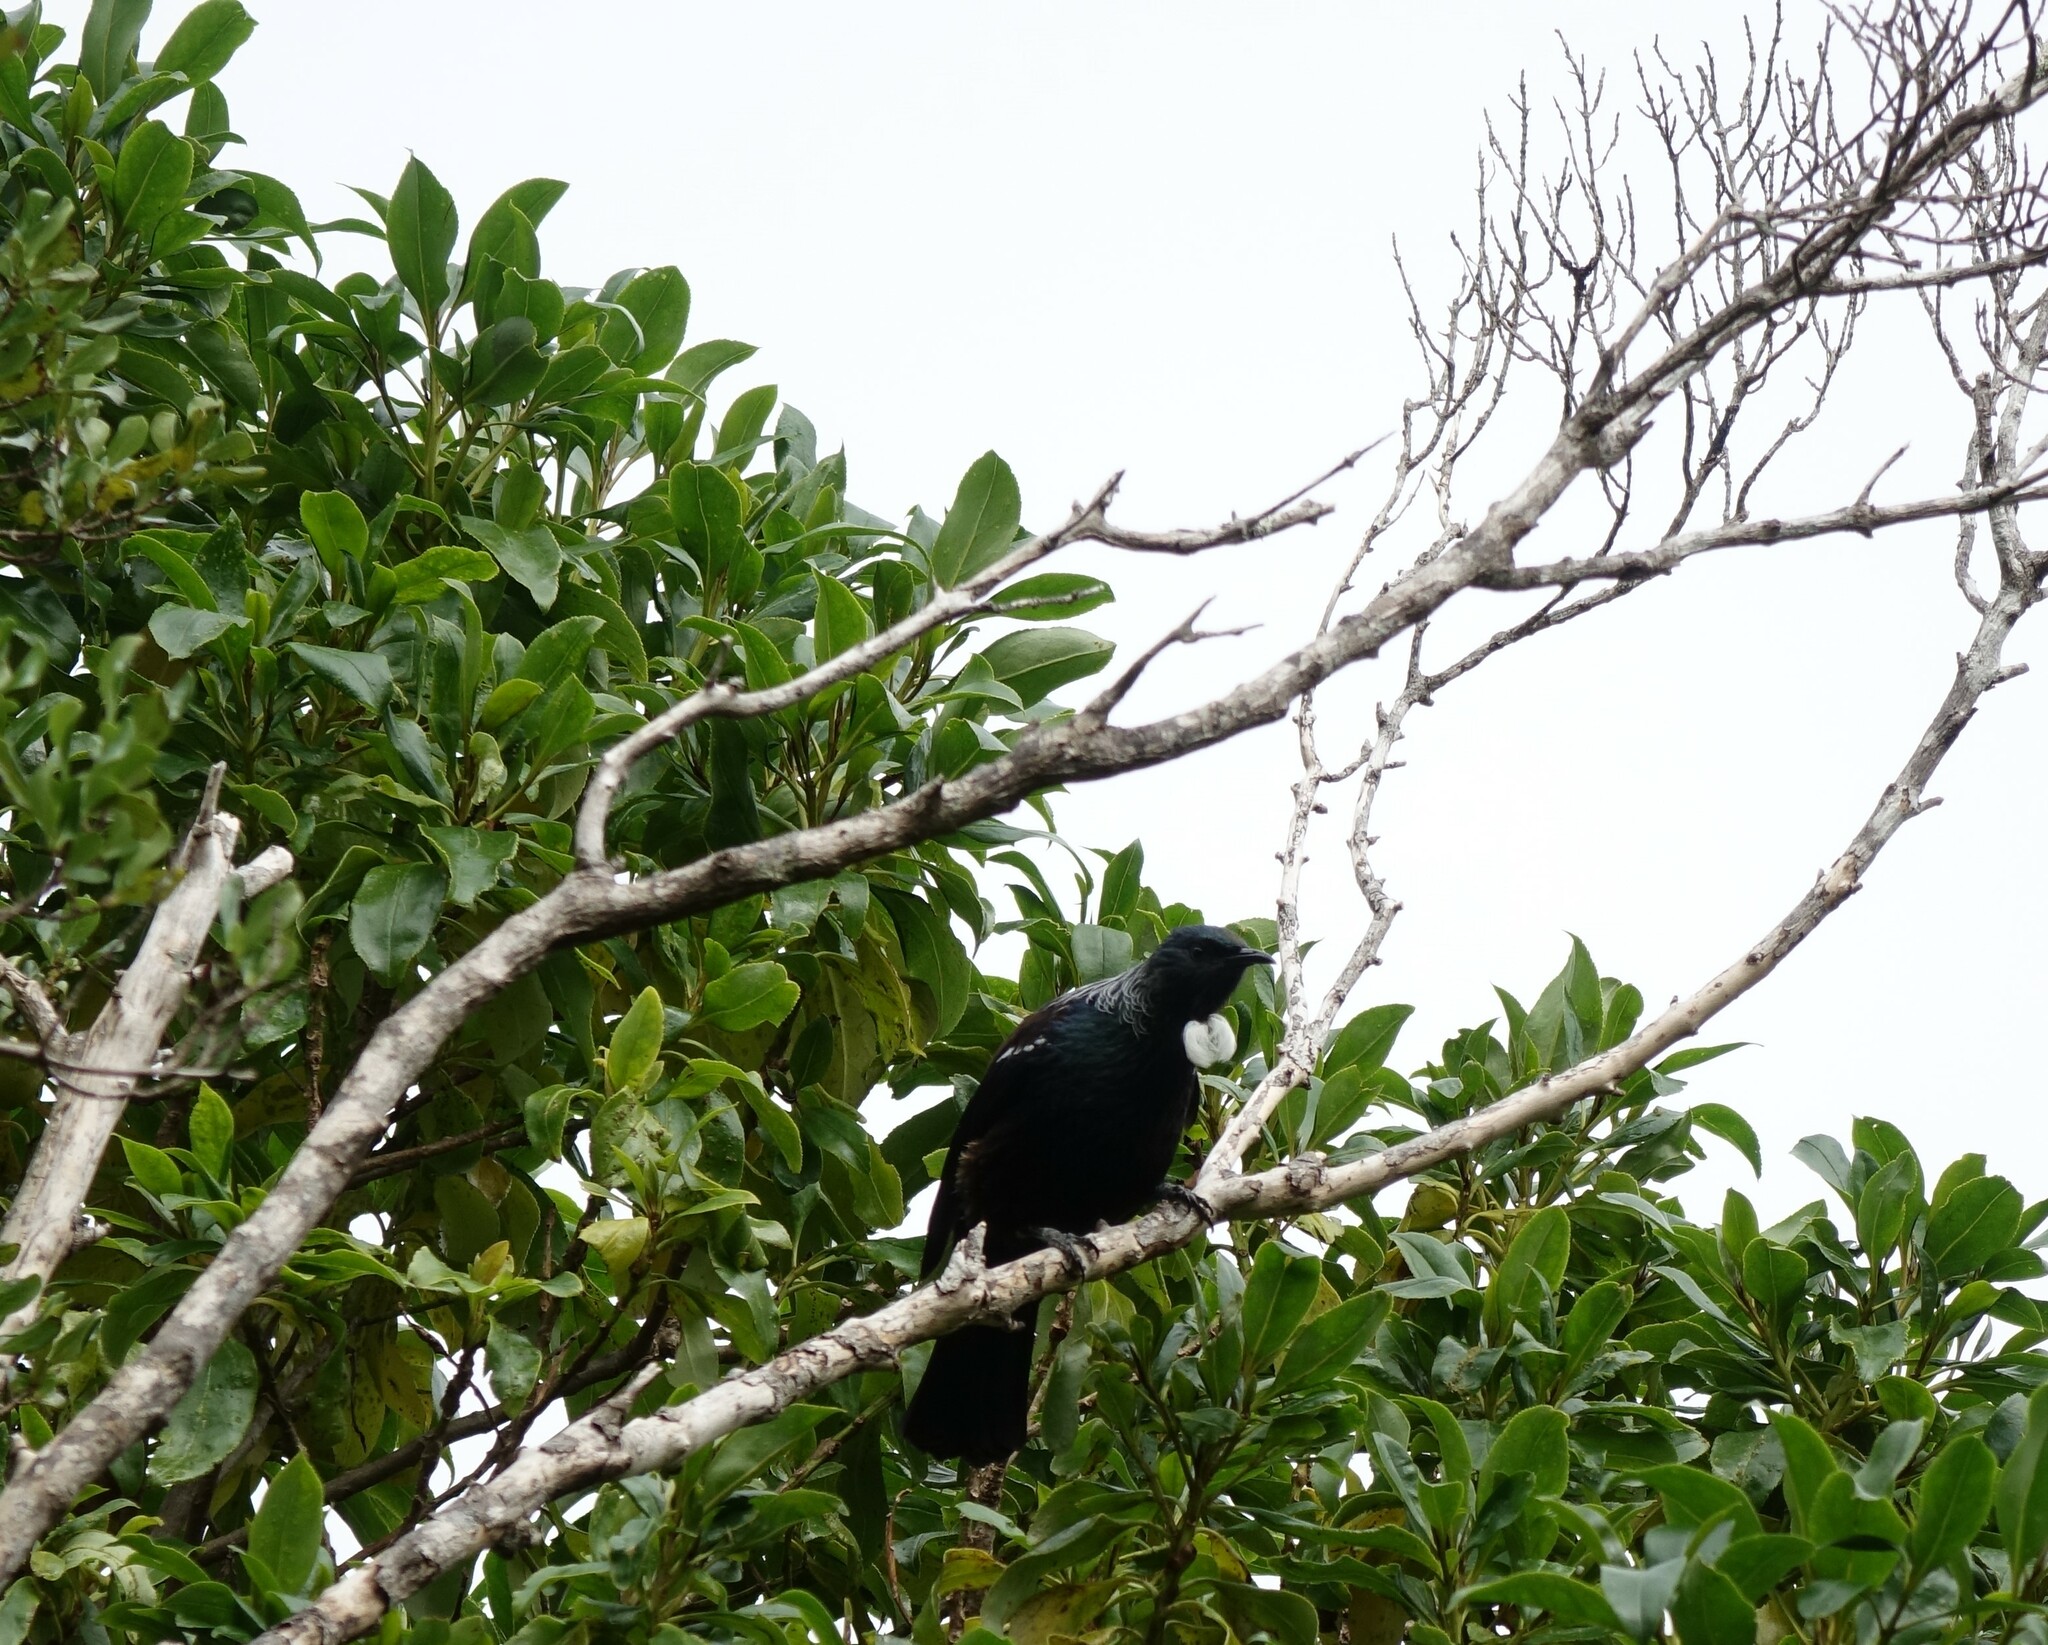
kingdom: Animalia
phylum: Chordata
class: Aves
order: Passeriformes
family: Meliphagidae
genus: Prosthemadera
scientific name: Prosthemadera novaeseelandiae
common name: Tui
